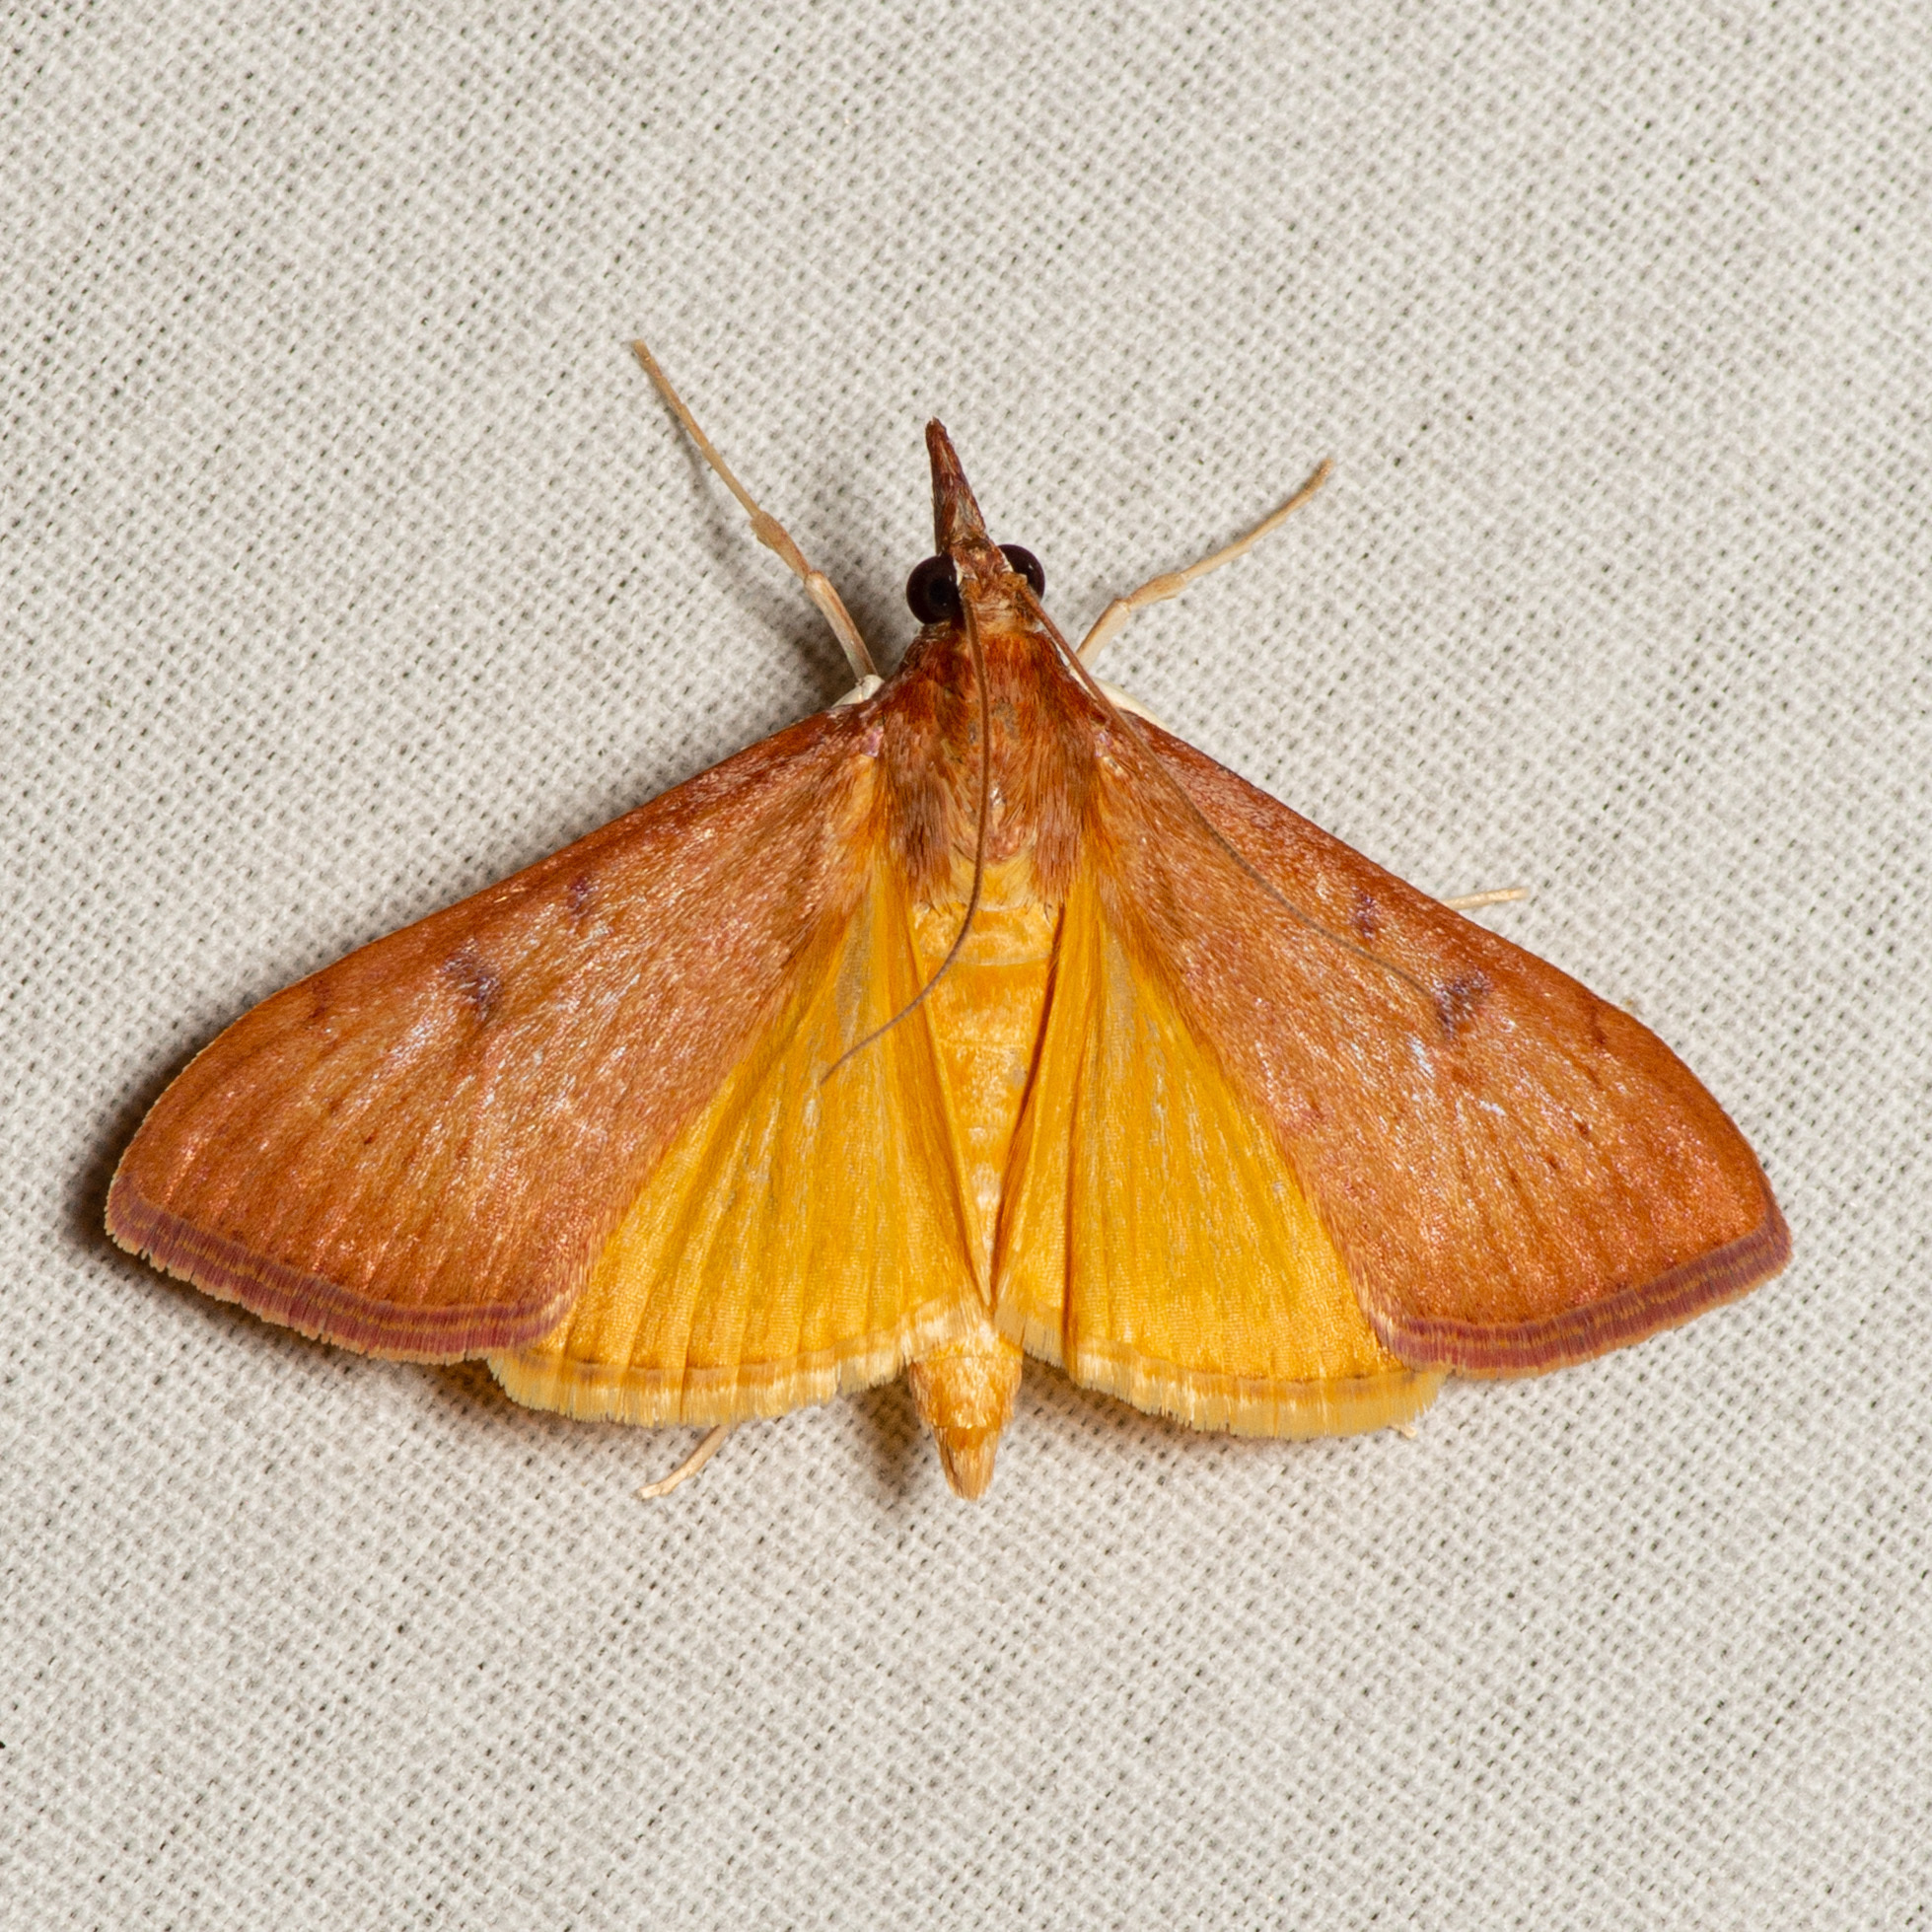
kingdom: Animalia
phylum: Arthropoda
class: Insecta
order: Lepidoptera
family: Crambidae
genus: Uresiphita
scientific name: Uresiphita reversalis
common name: Genista broom moth
